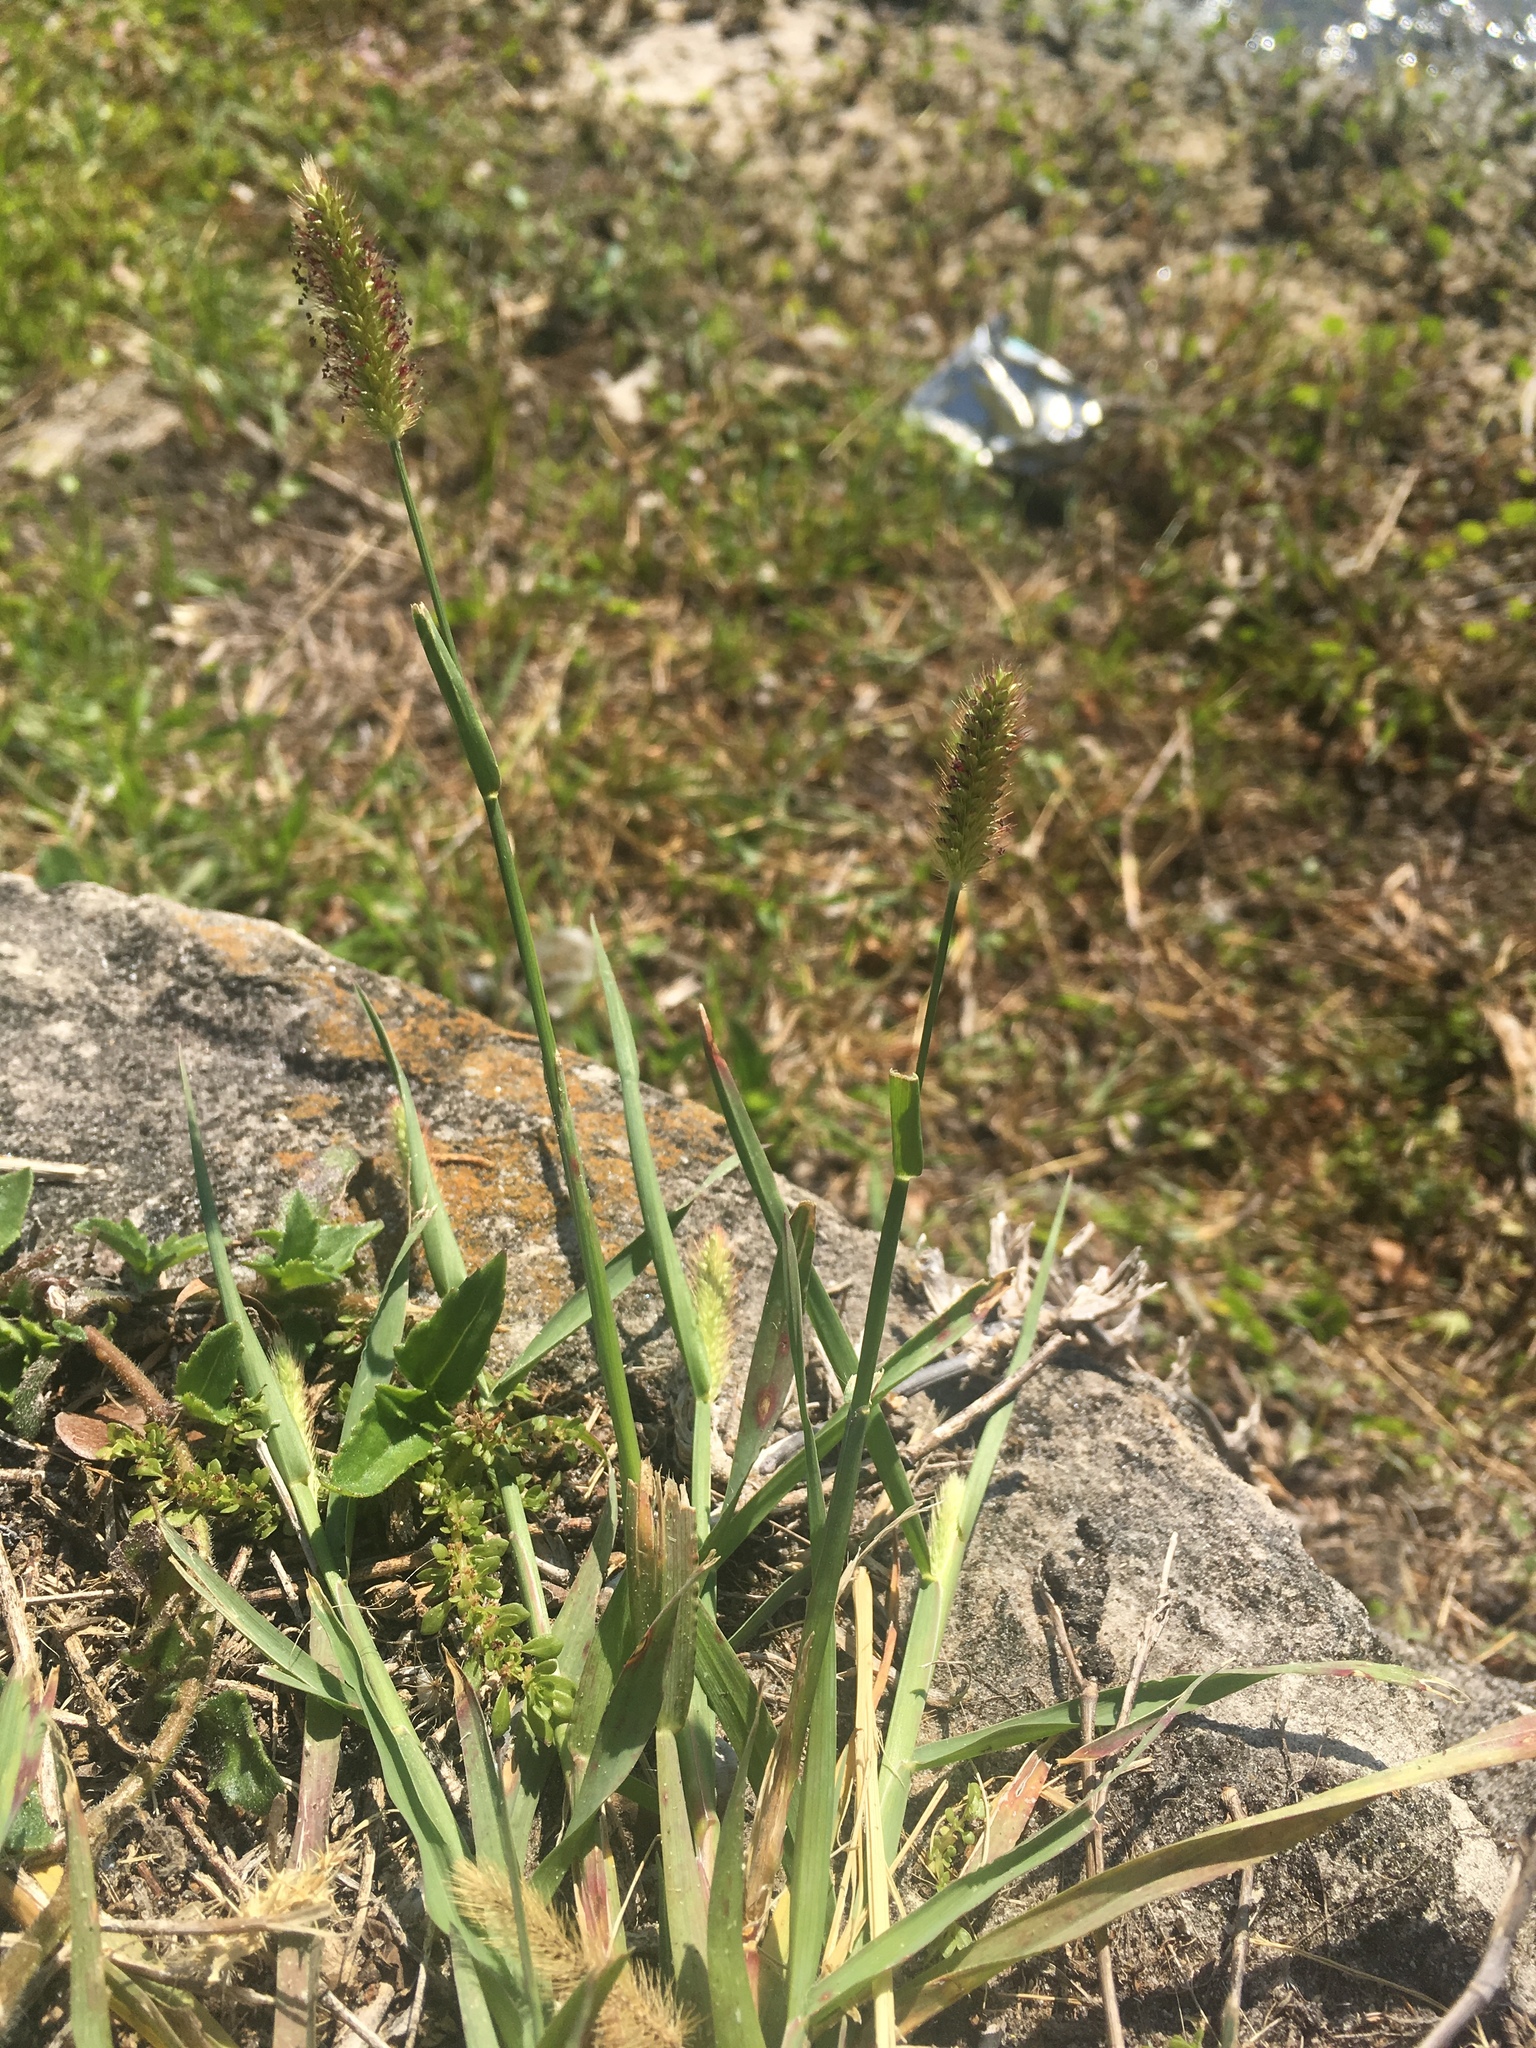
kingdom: Plantae
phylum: Tracheophyta
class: Liliopsida
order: Poales
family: Poaceae
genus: Setaria
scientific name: Setaria parviflora
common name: Knotroot bristle-grass
